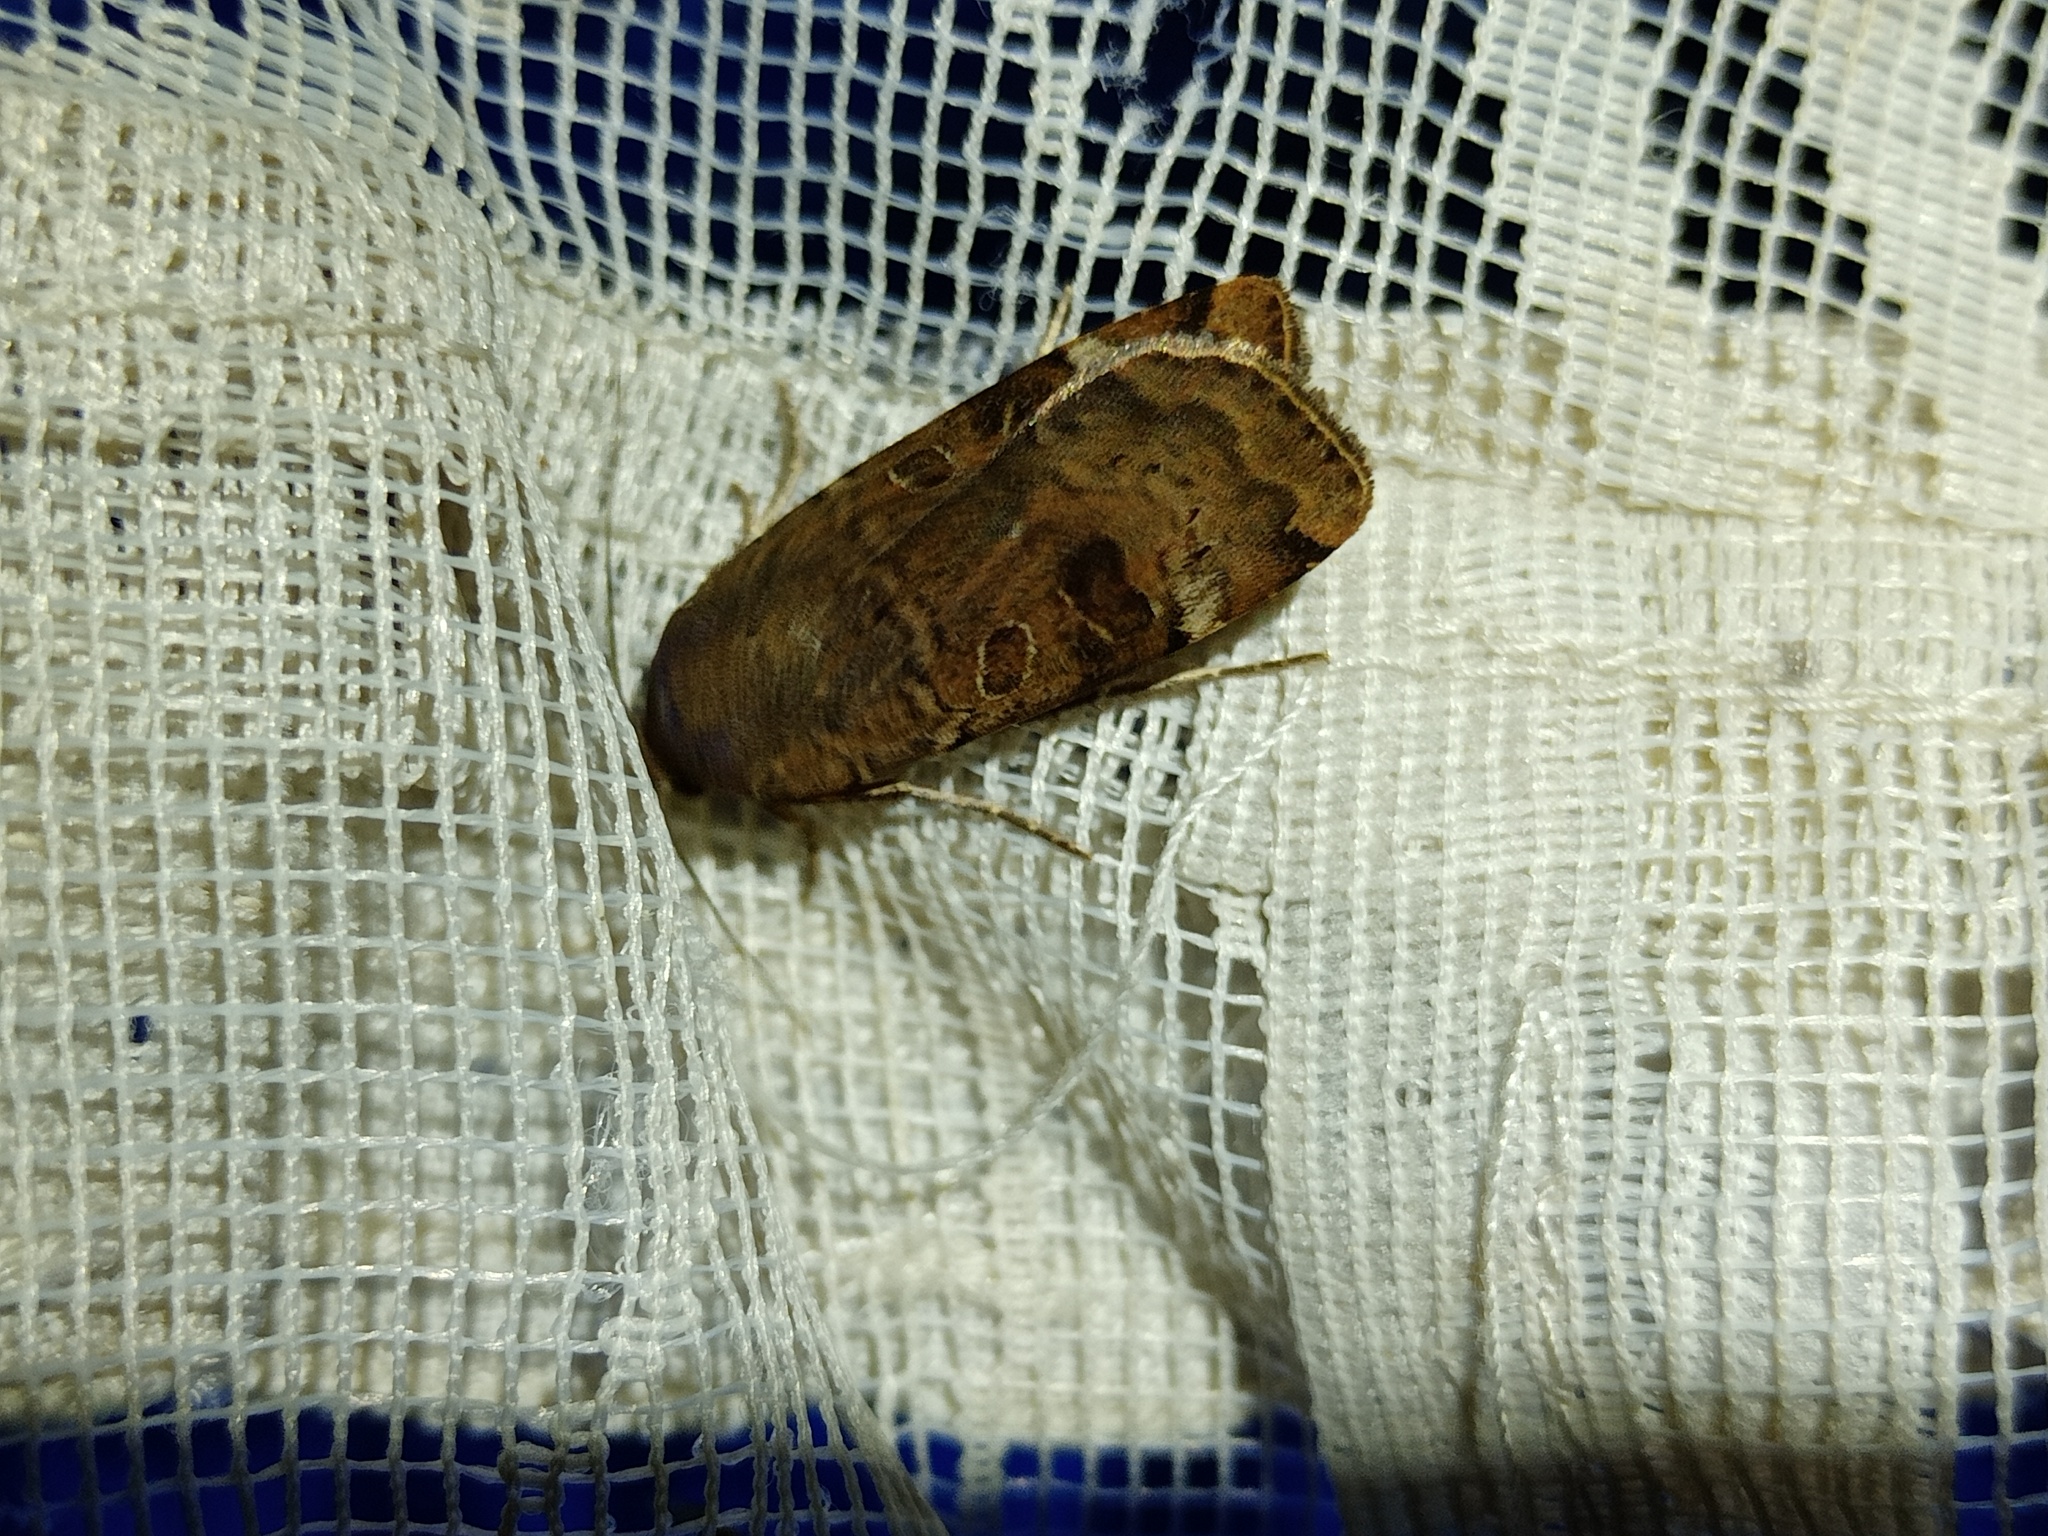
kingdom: Animalia
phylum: Arthropoda
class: Insecta
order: Lepidoptera
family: Noctuidae
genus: Noctua
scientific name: Noctua interposita
